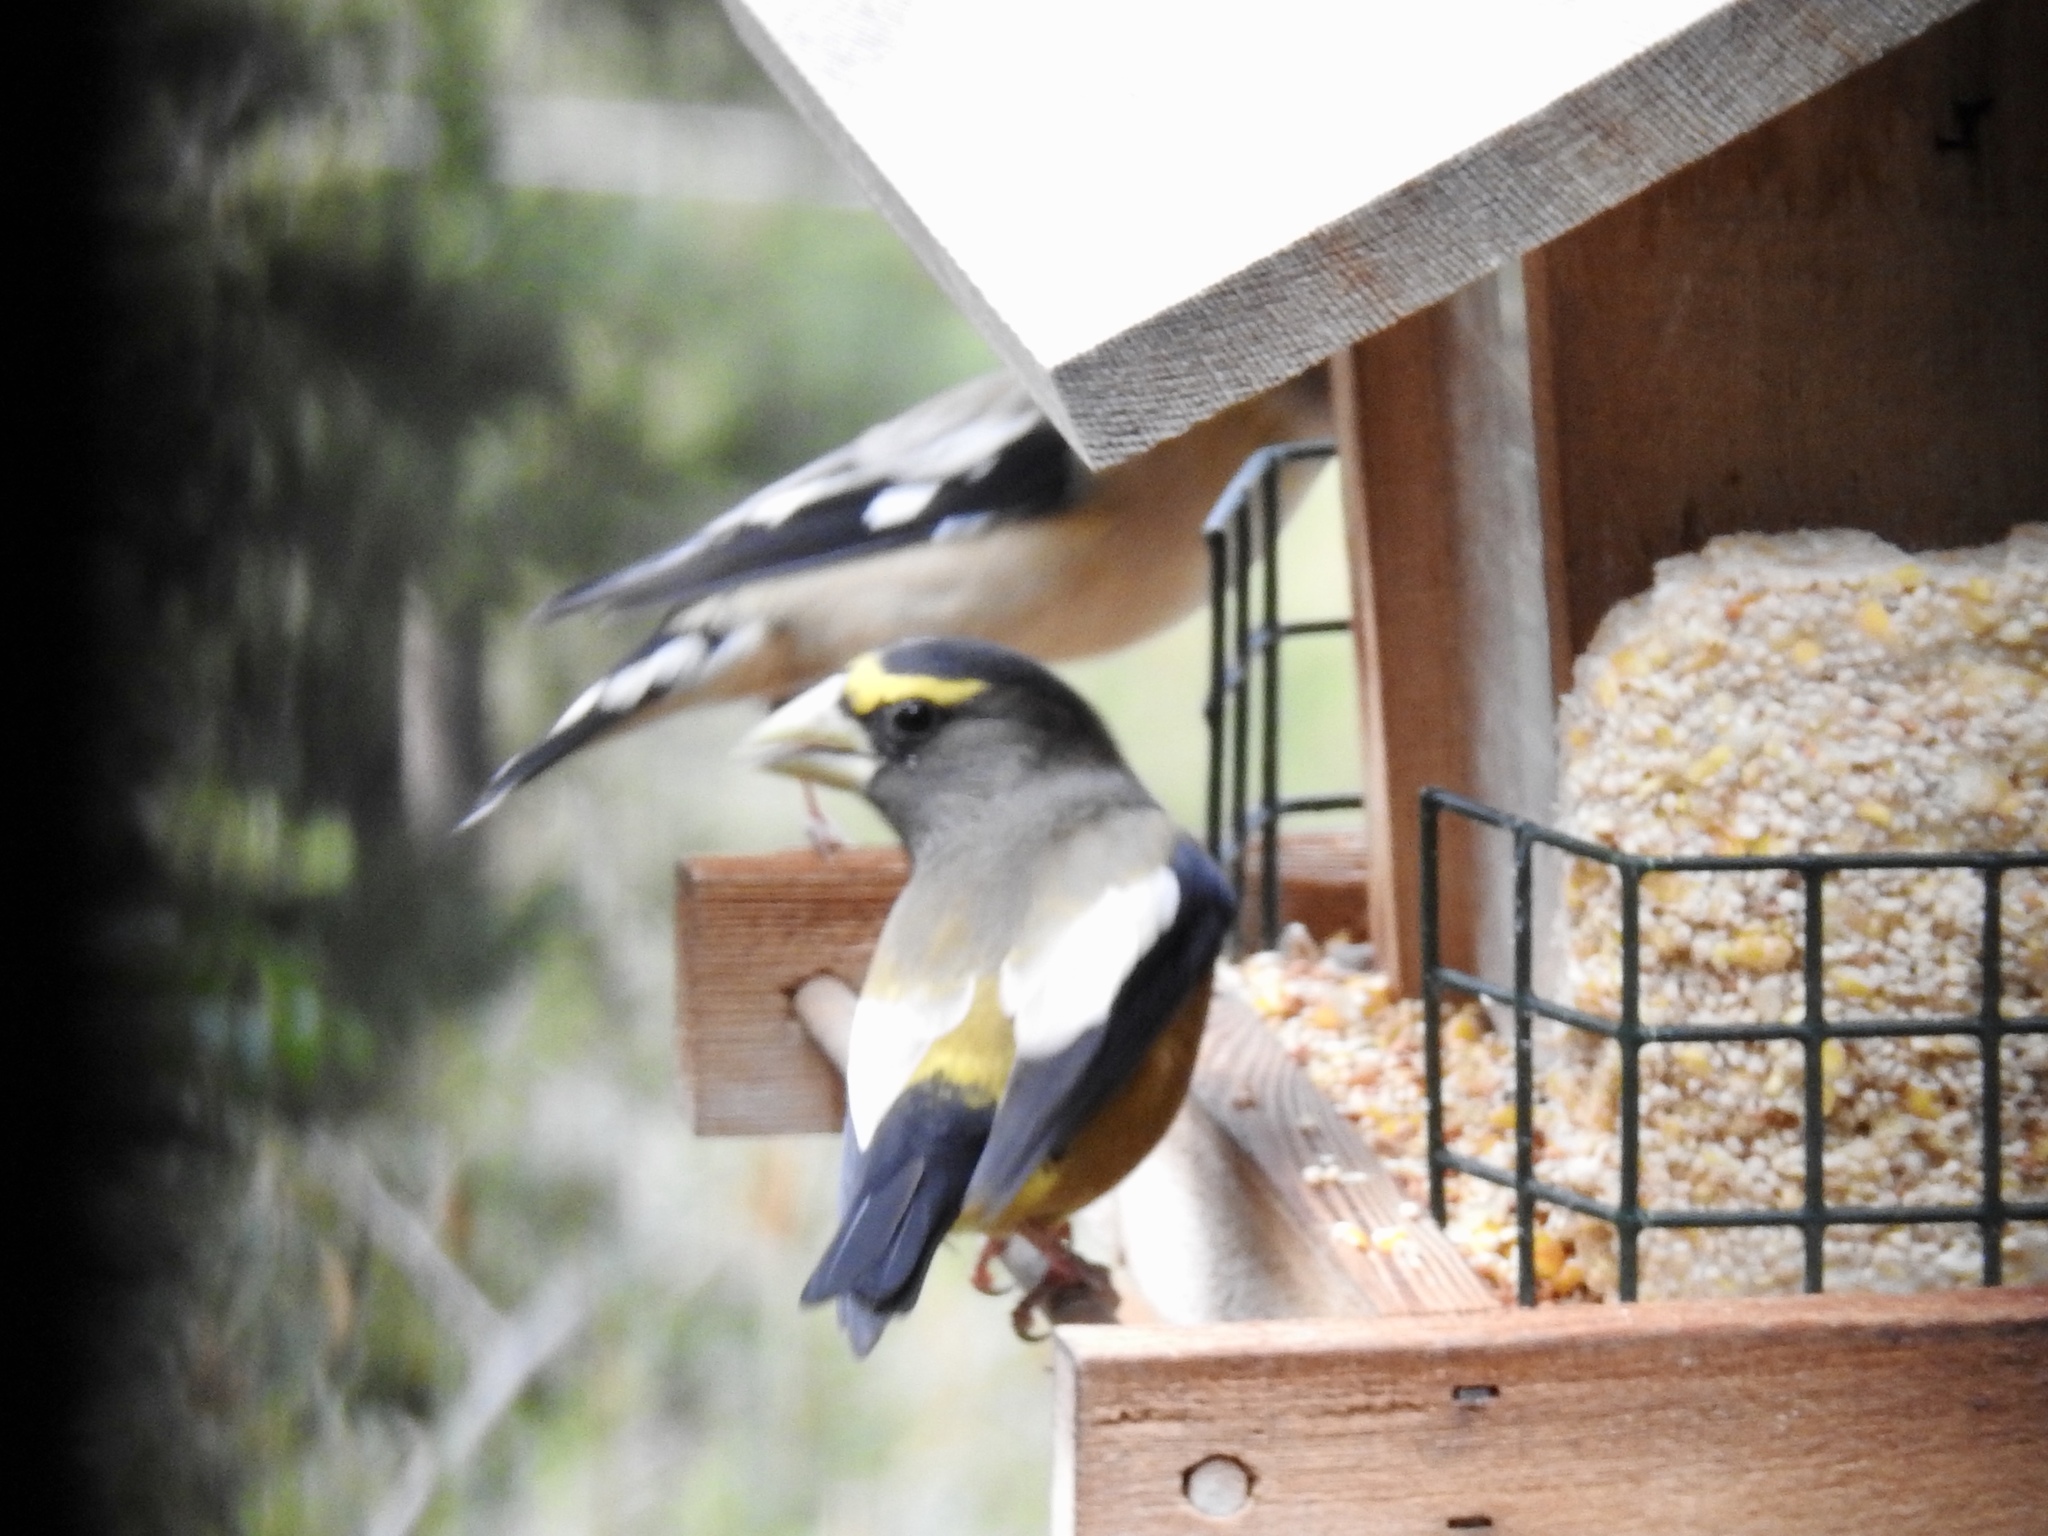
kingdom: Animalia
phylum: Chordata
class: Aves
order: Passeriformes
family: Fringillidae
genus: Hesperiphona
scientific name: Hesperiphona vespertina
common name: Evening grosbeak
